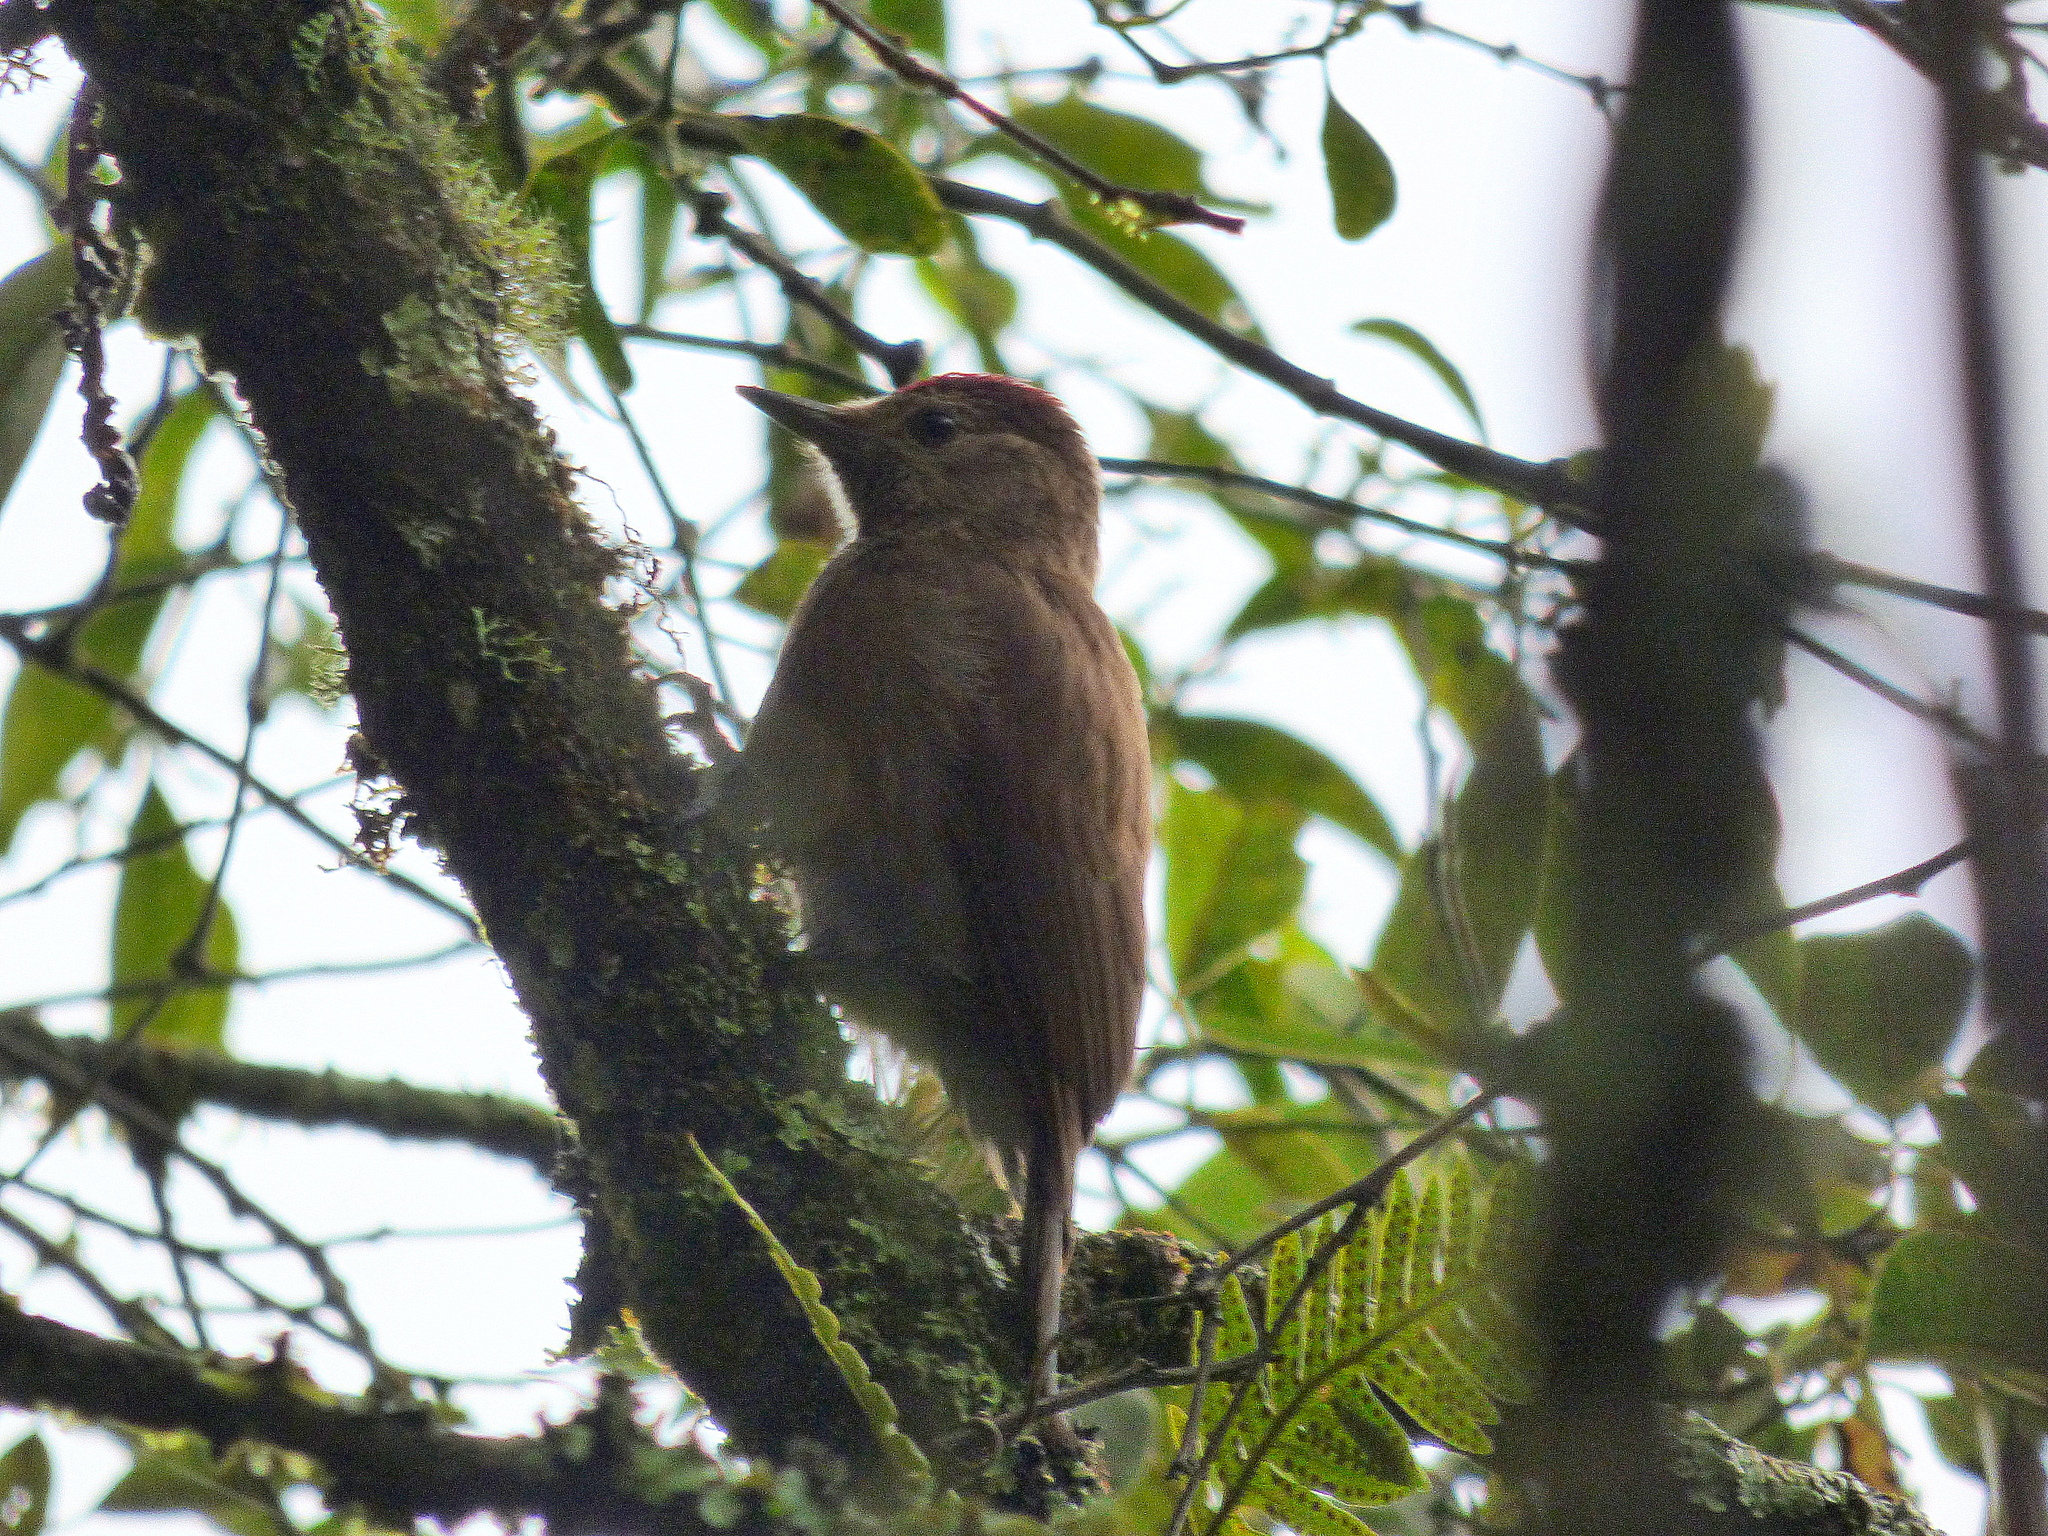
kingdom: Animalia
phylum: Chordata
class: Aves
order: Piciformes
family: Picidae
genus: Leuconotopicus
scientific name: Leuconotopicus fumigatus
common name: Smoky-brown woodpecker
